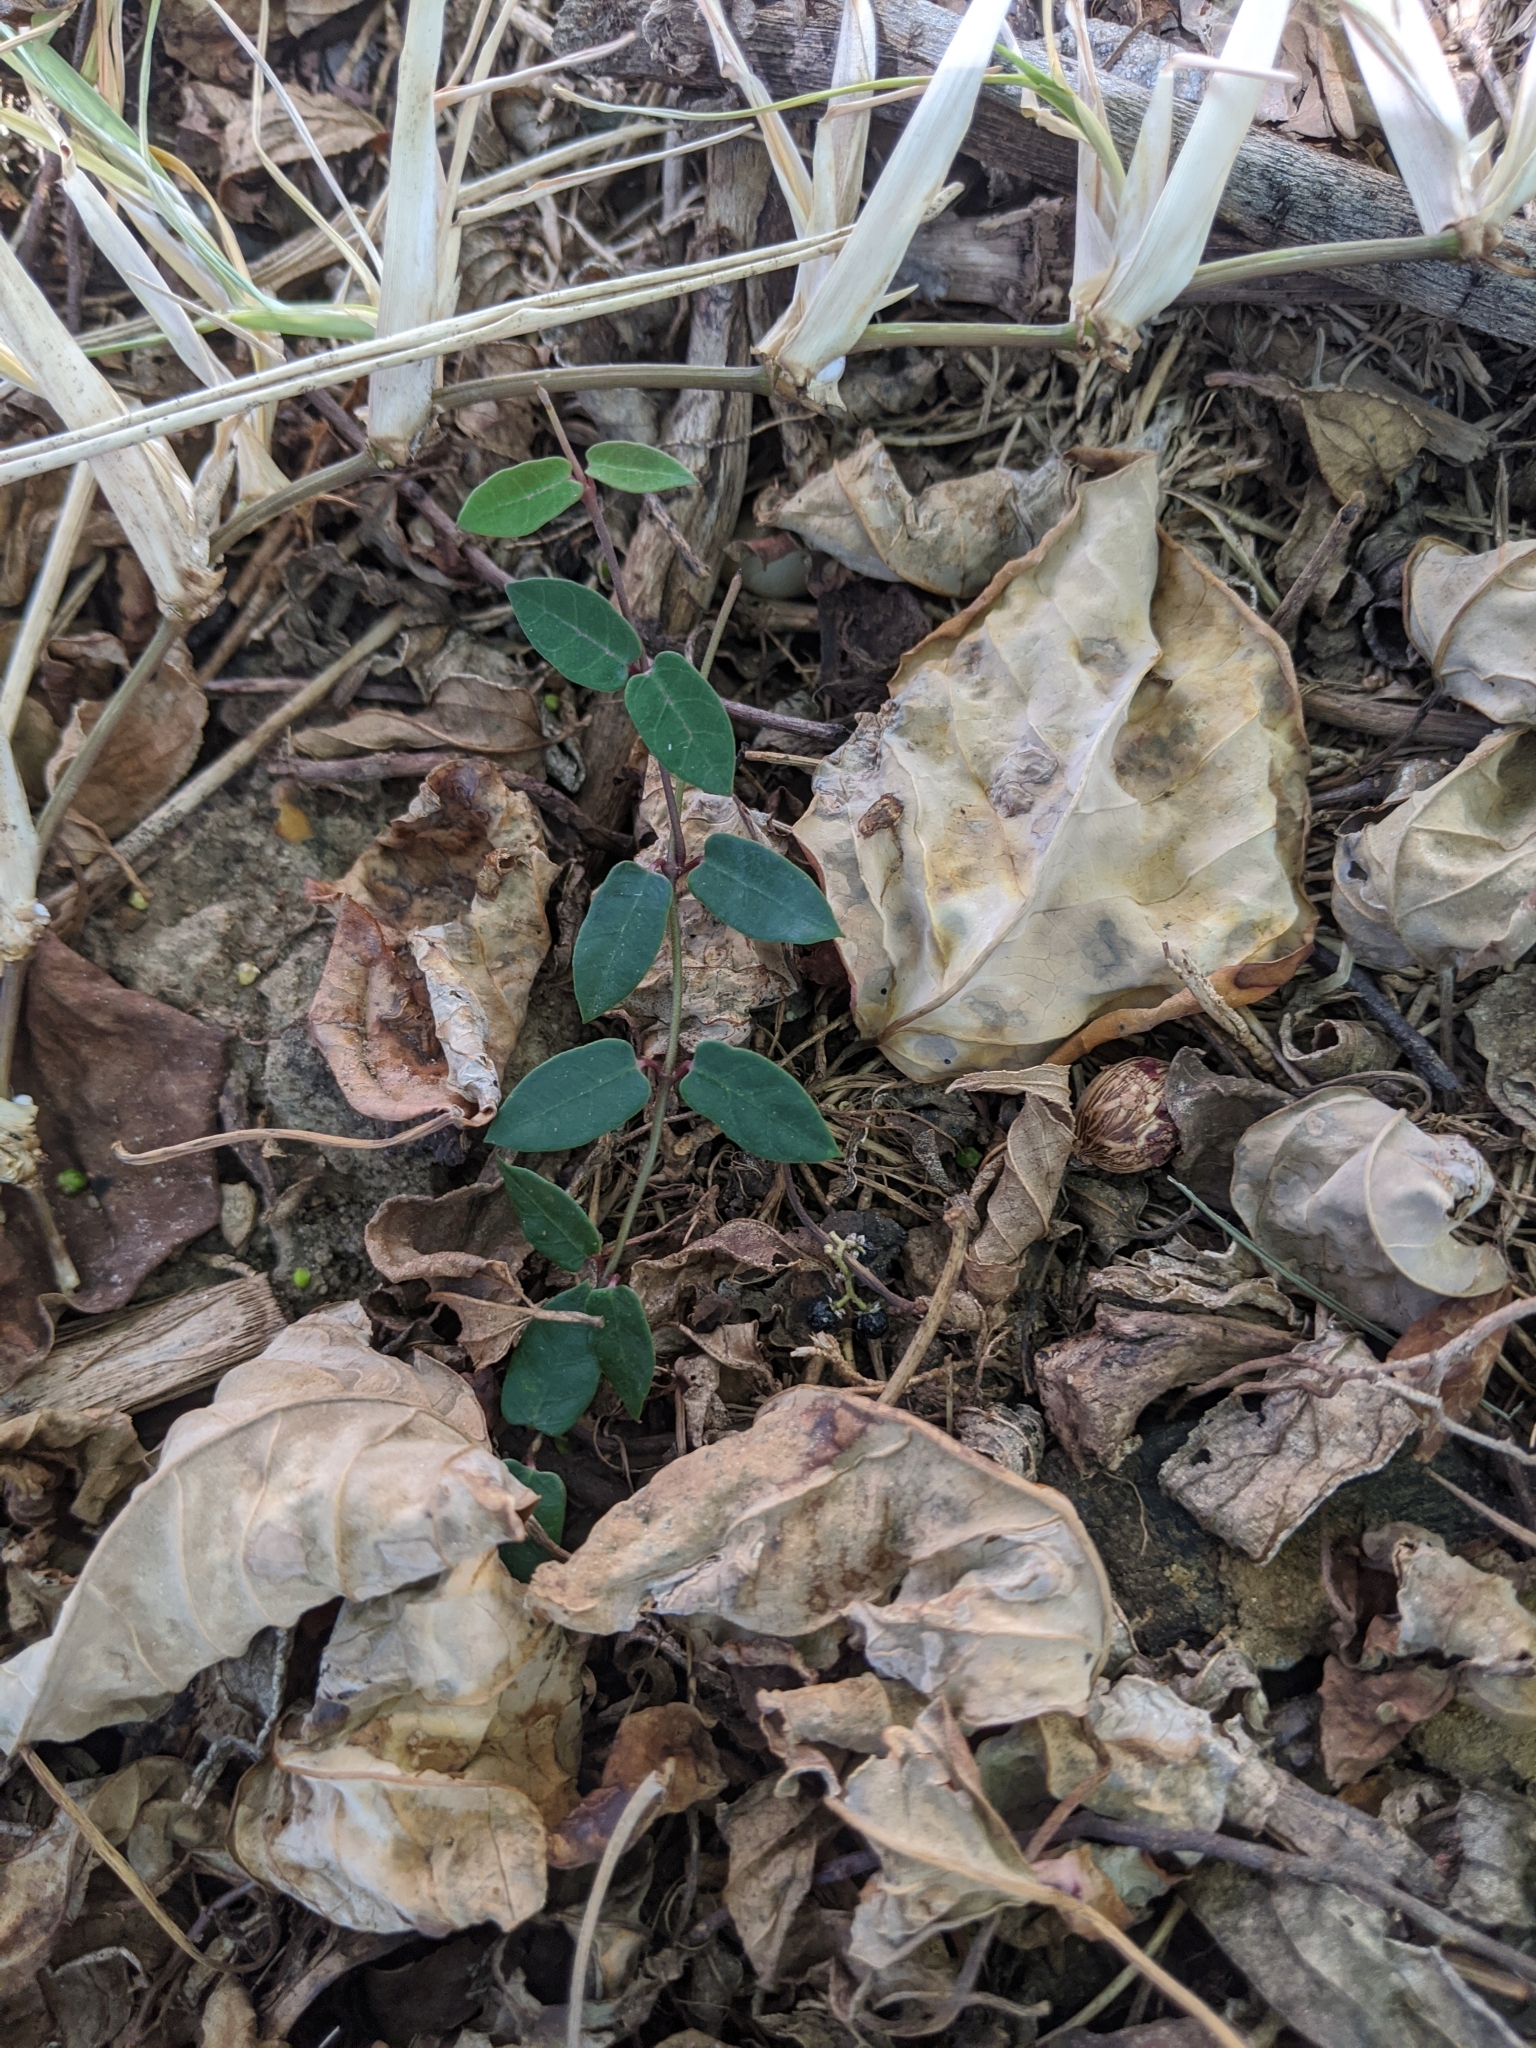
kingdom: Plantae
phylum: Tracheophyta
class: Magnoliopsida
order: Gentianales
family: Apocynaceae
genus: Parsonsia
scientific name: Parsonsia straminea
